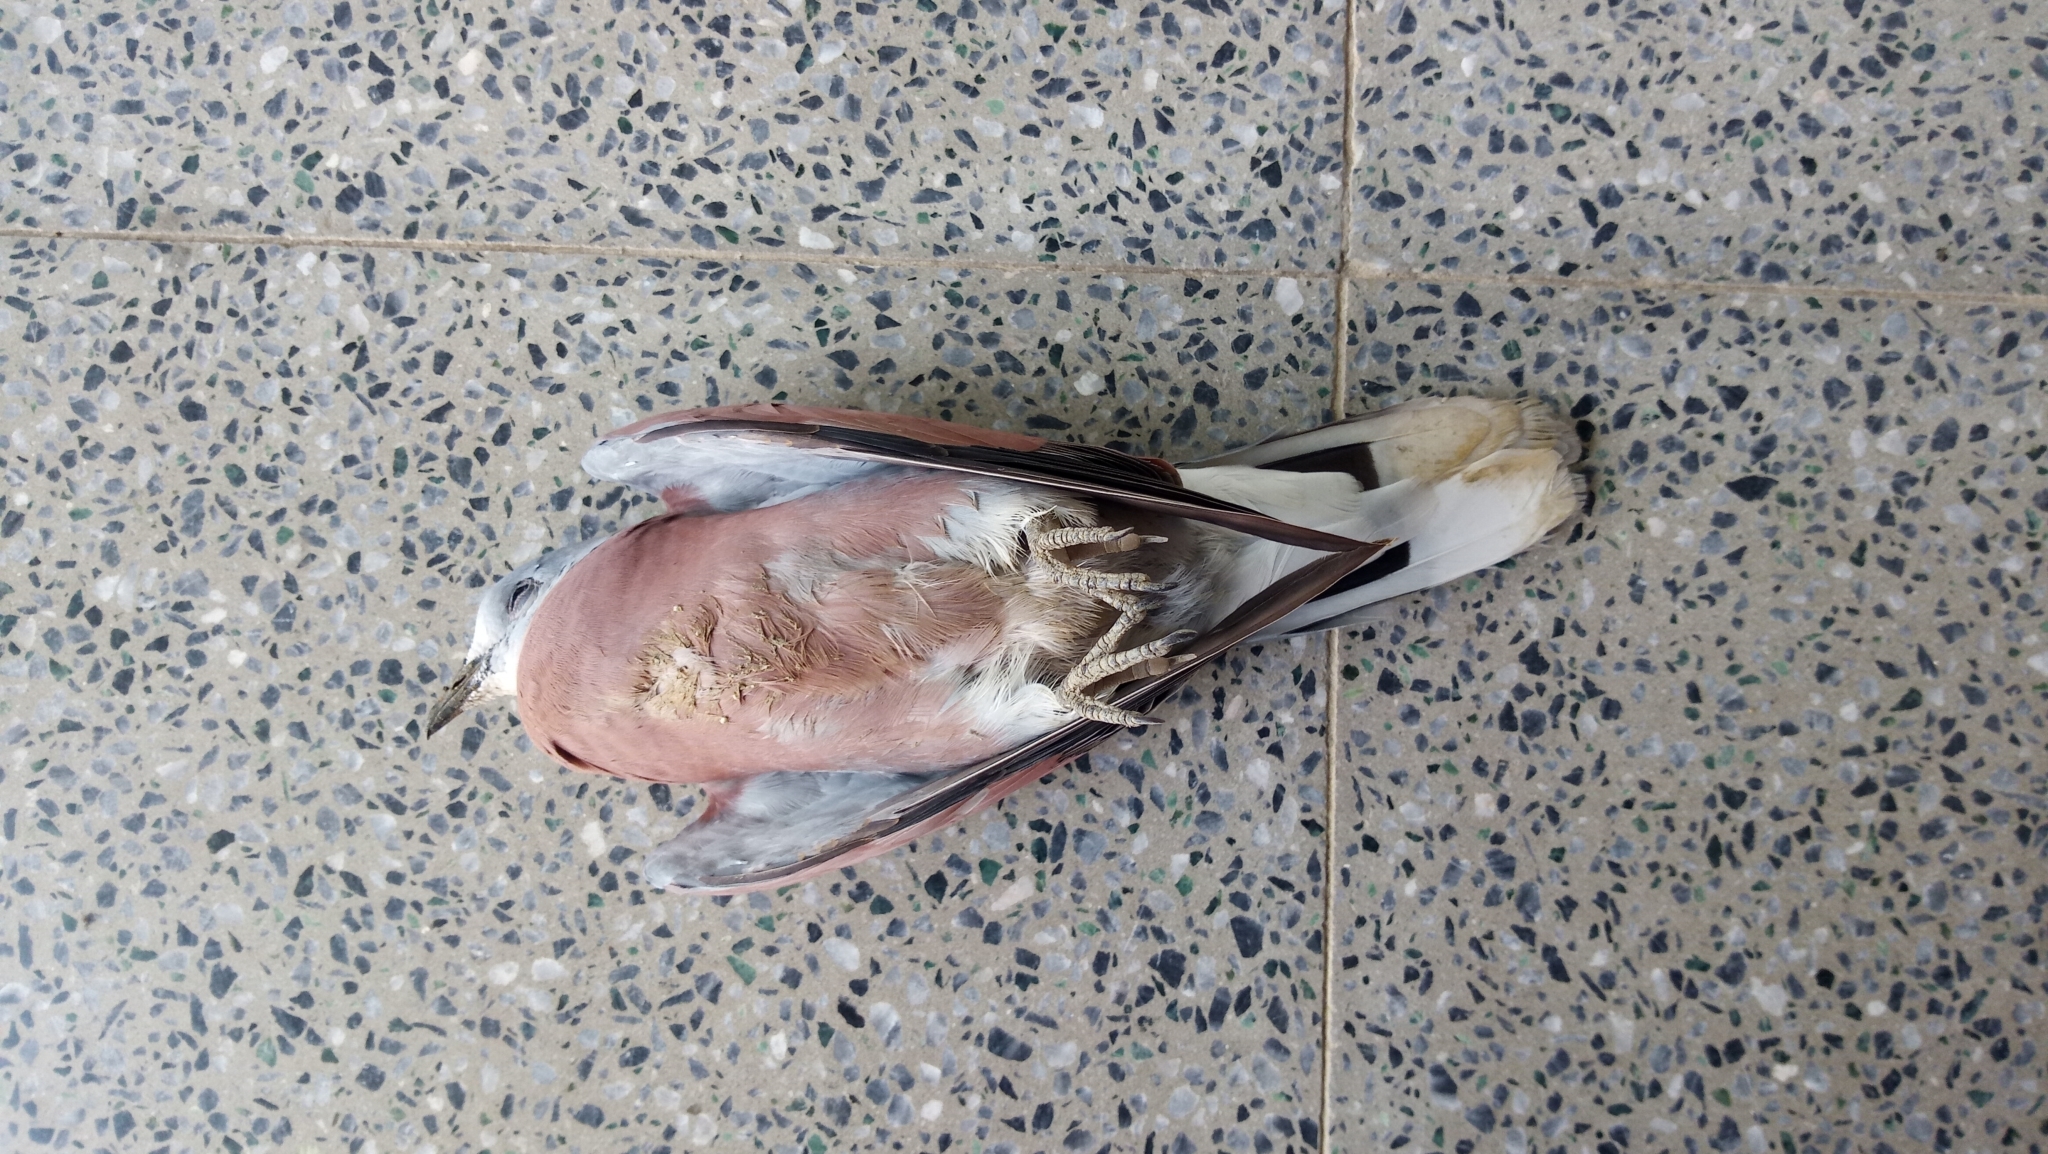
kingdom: Animalia
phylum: Chordata
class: Aves
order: Columbiformes
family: Columbidae
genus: Streptopelia
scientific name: Streptopelia tranquebarica
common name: Red turtle dove
